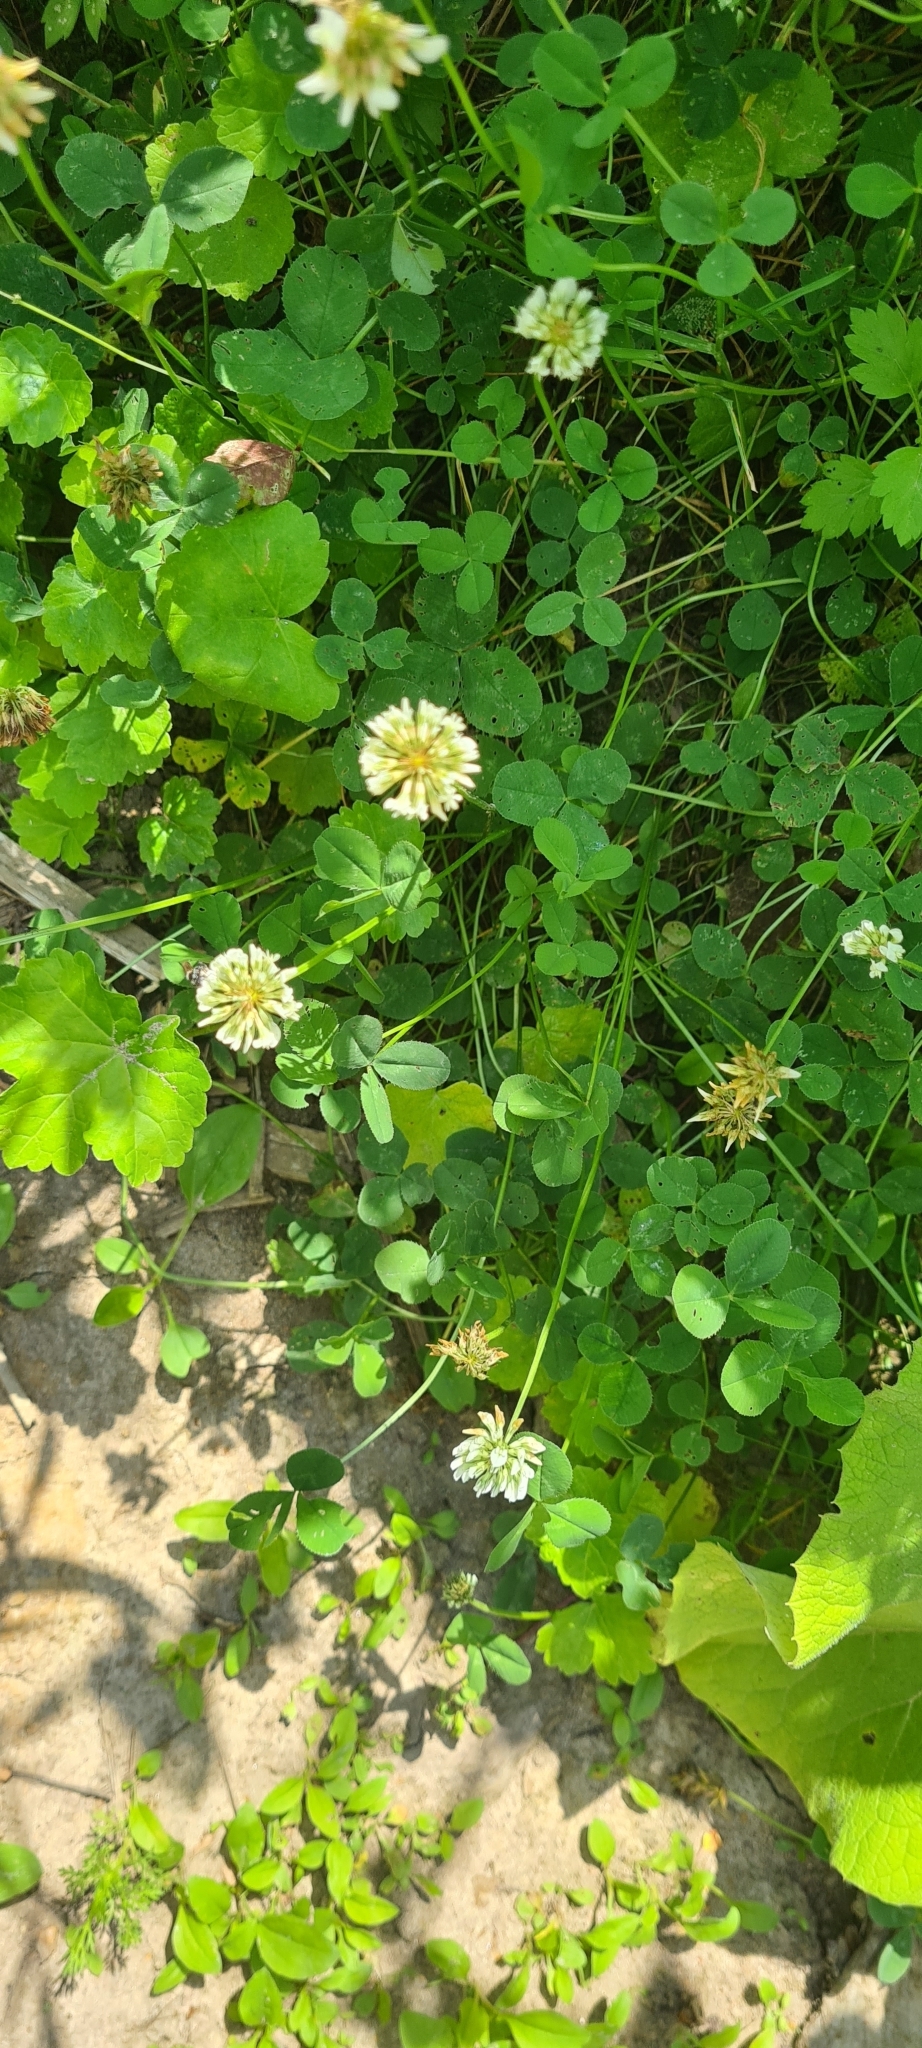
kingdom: Plantae
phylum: Tracheophyta
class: Magnoliopsida
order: Fabales
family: Fabaceae
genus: Trifolium
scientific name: Trifolium repens
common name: White clover
